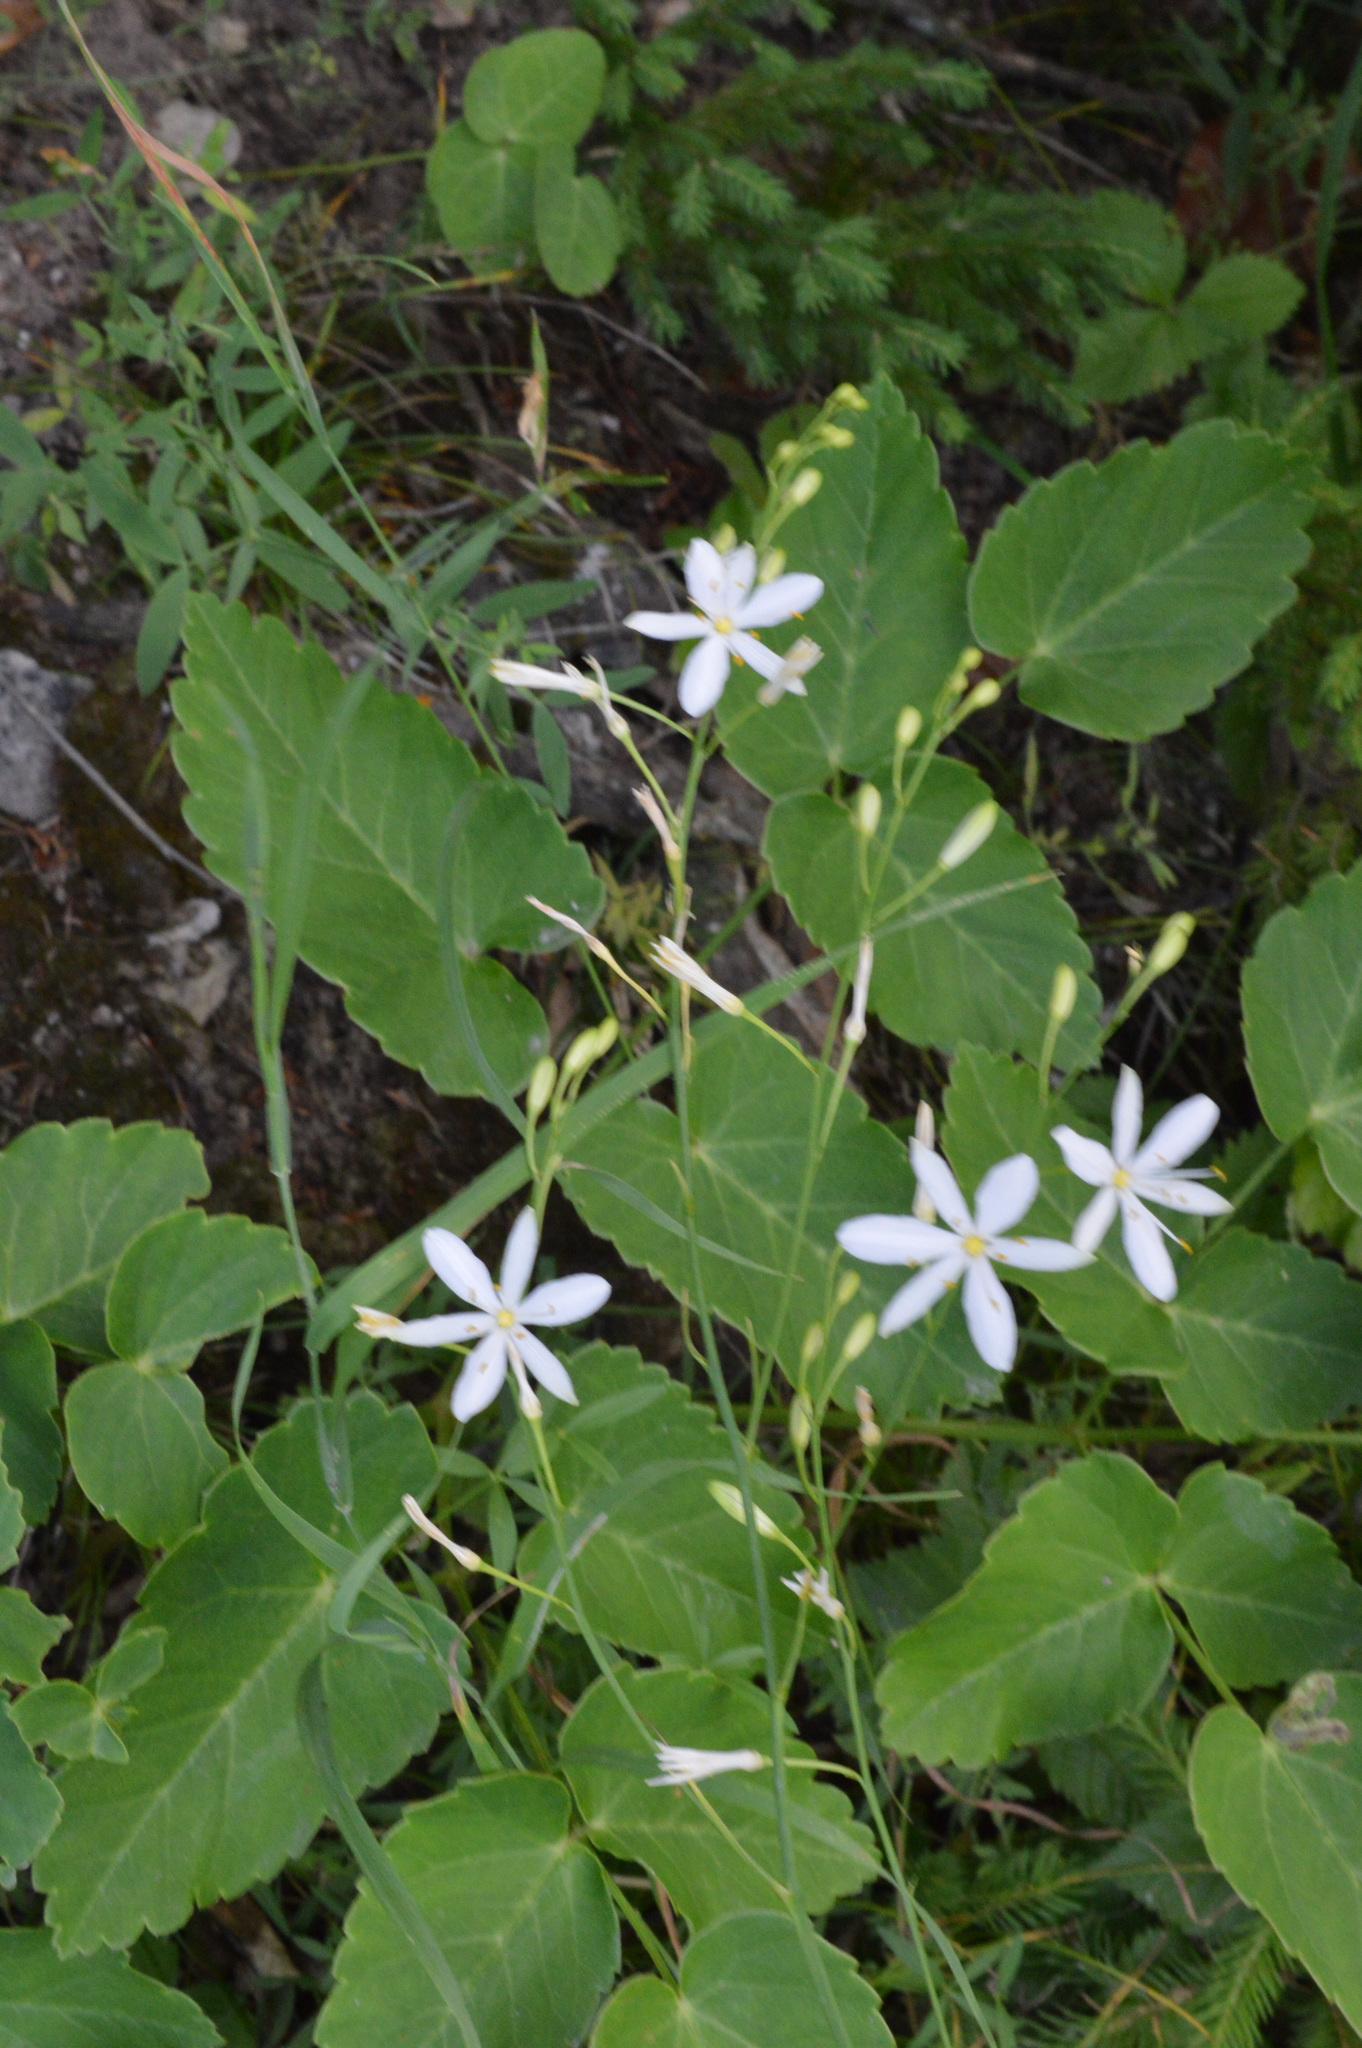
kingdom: Plantae
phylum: Tracheophyta
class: Liliopsida
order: Asparagales
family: Asparagaceae
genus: Anthericum
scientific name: Anthericum ramosum
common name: Branched st. bernard's-lily
